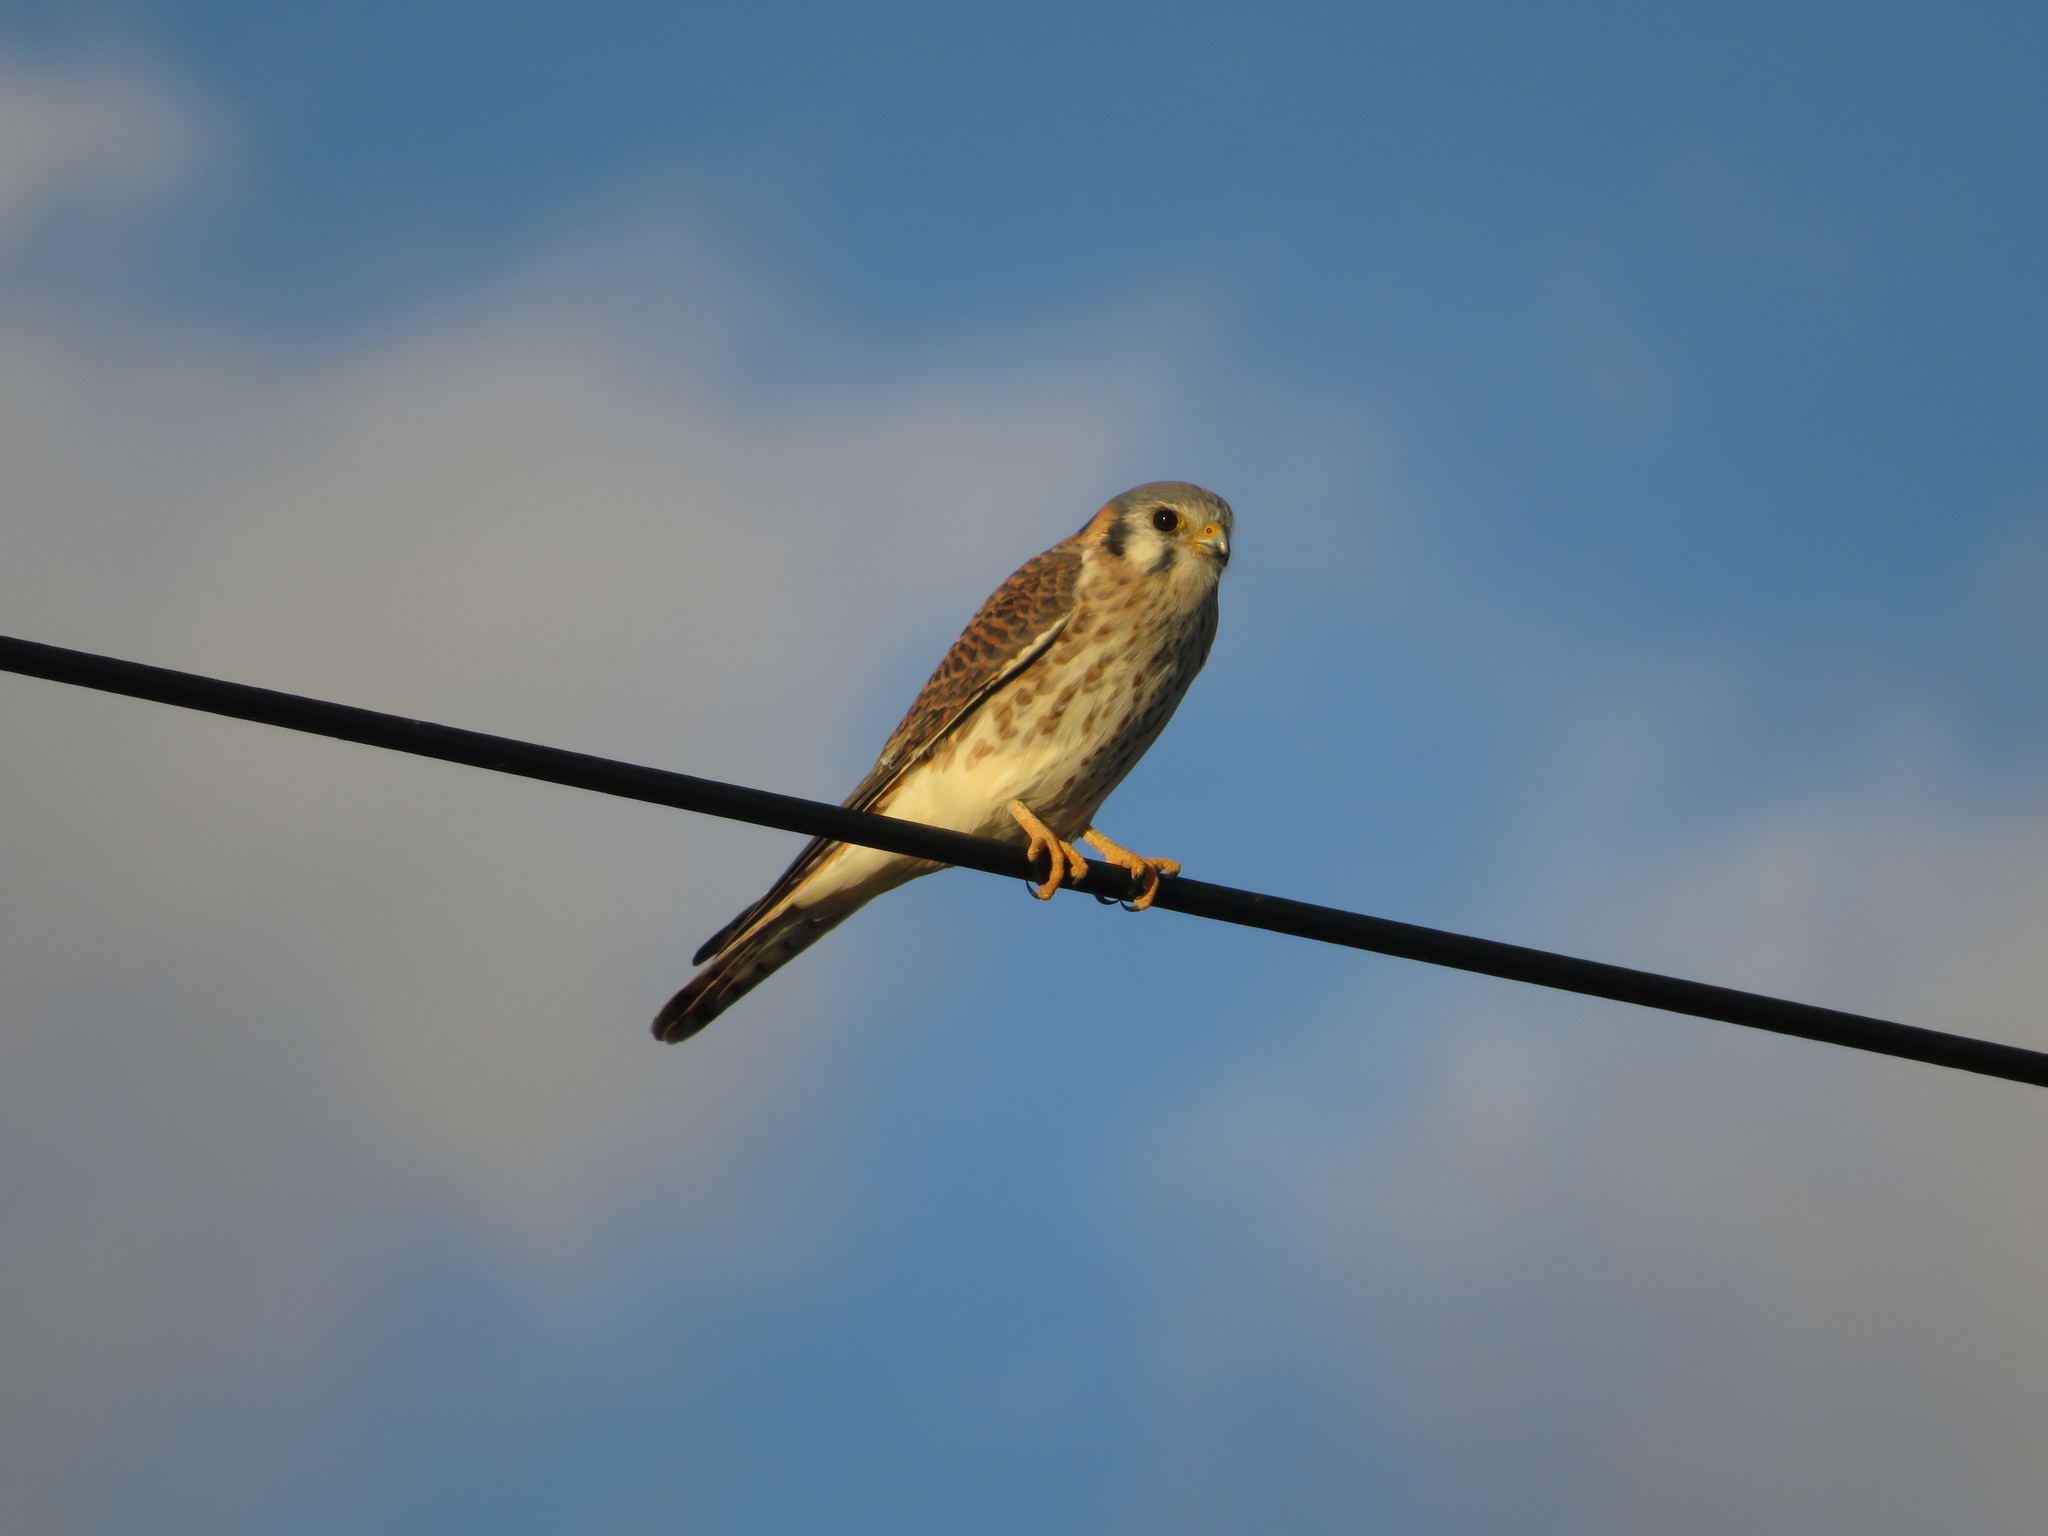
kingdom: Animalia
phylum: Chordata
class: Aves
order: Falconiformes
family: Falconidae
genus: Falco
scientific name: Falco sparverius
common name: American kestrel
